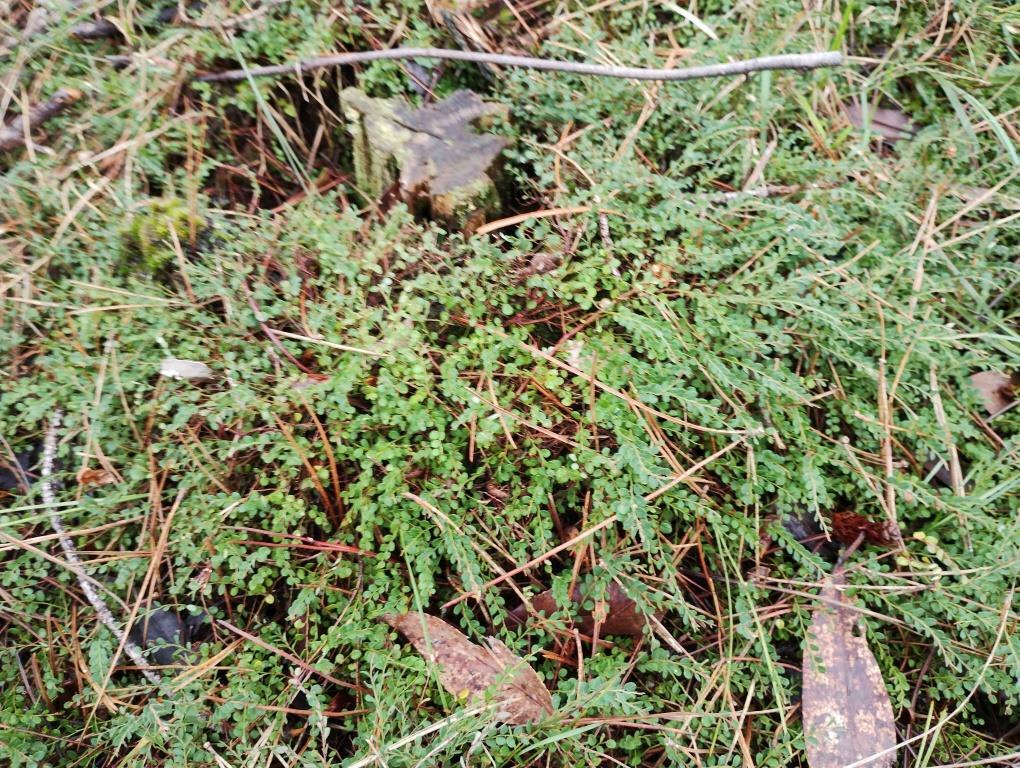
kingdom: Plantae
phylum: Tracheophyta
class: Magnoliopsida
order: Fabales
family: Fabaceae
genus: Bossiaea
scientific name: Bossiaea decumbens
